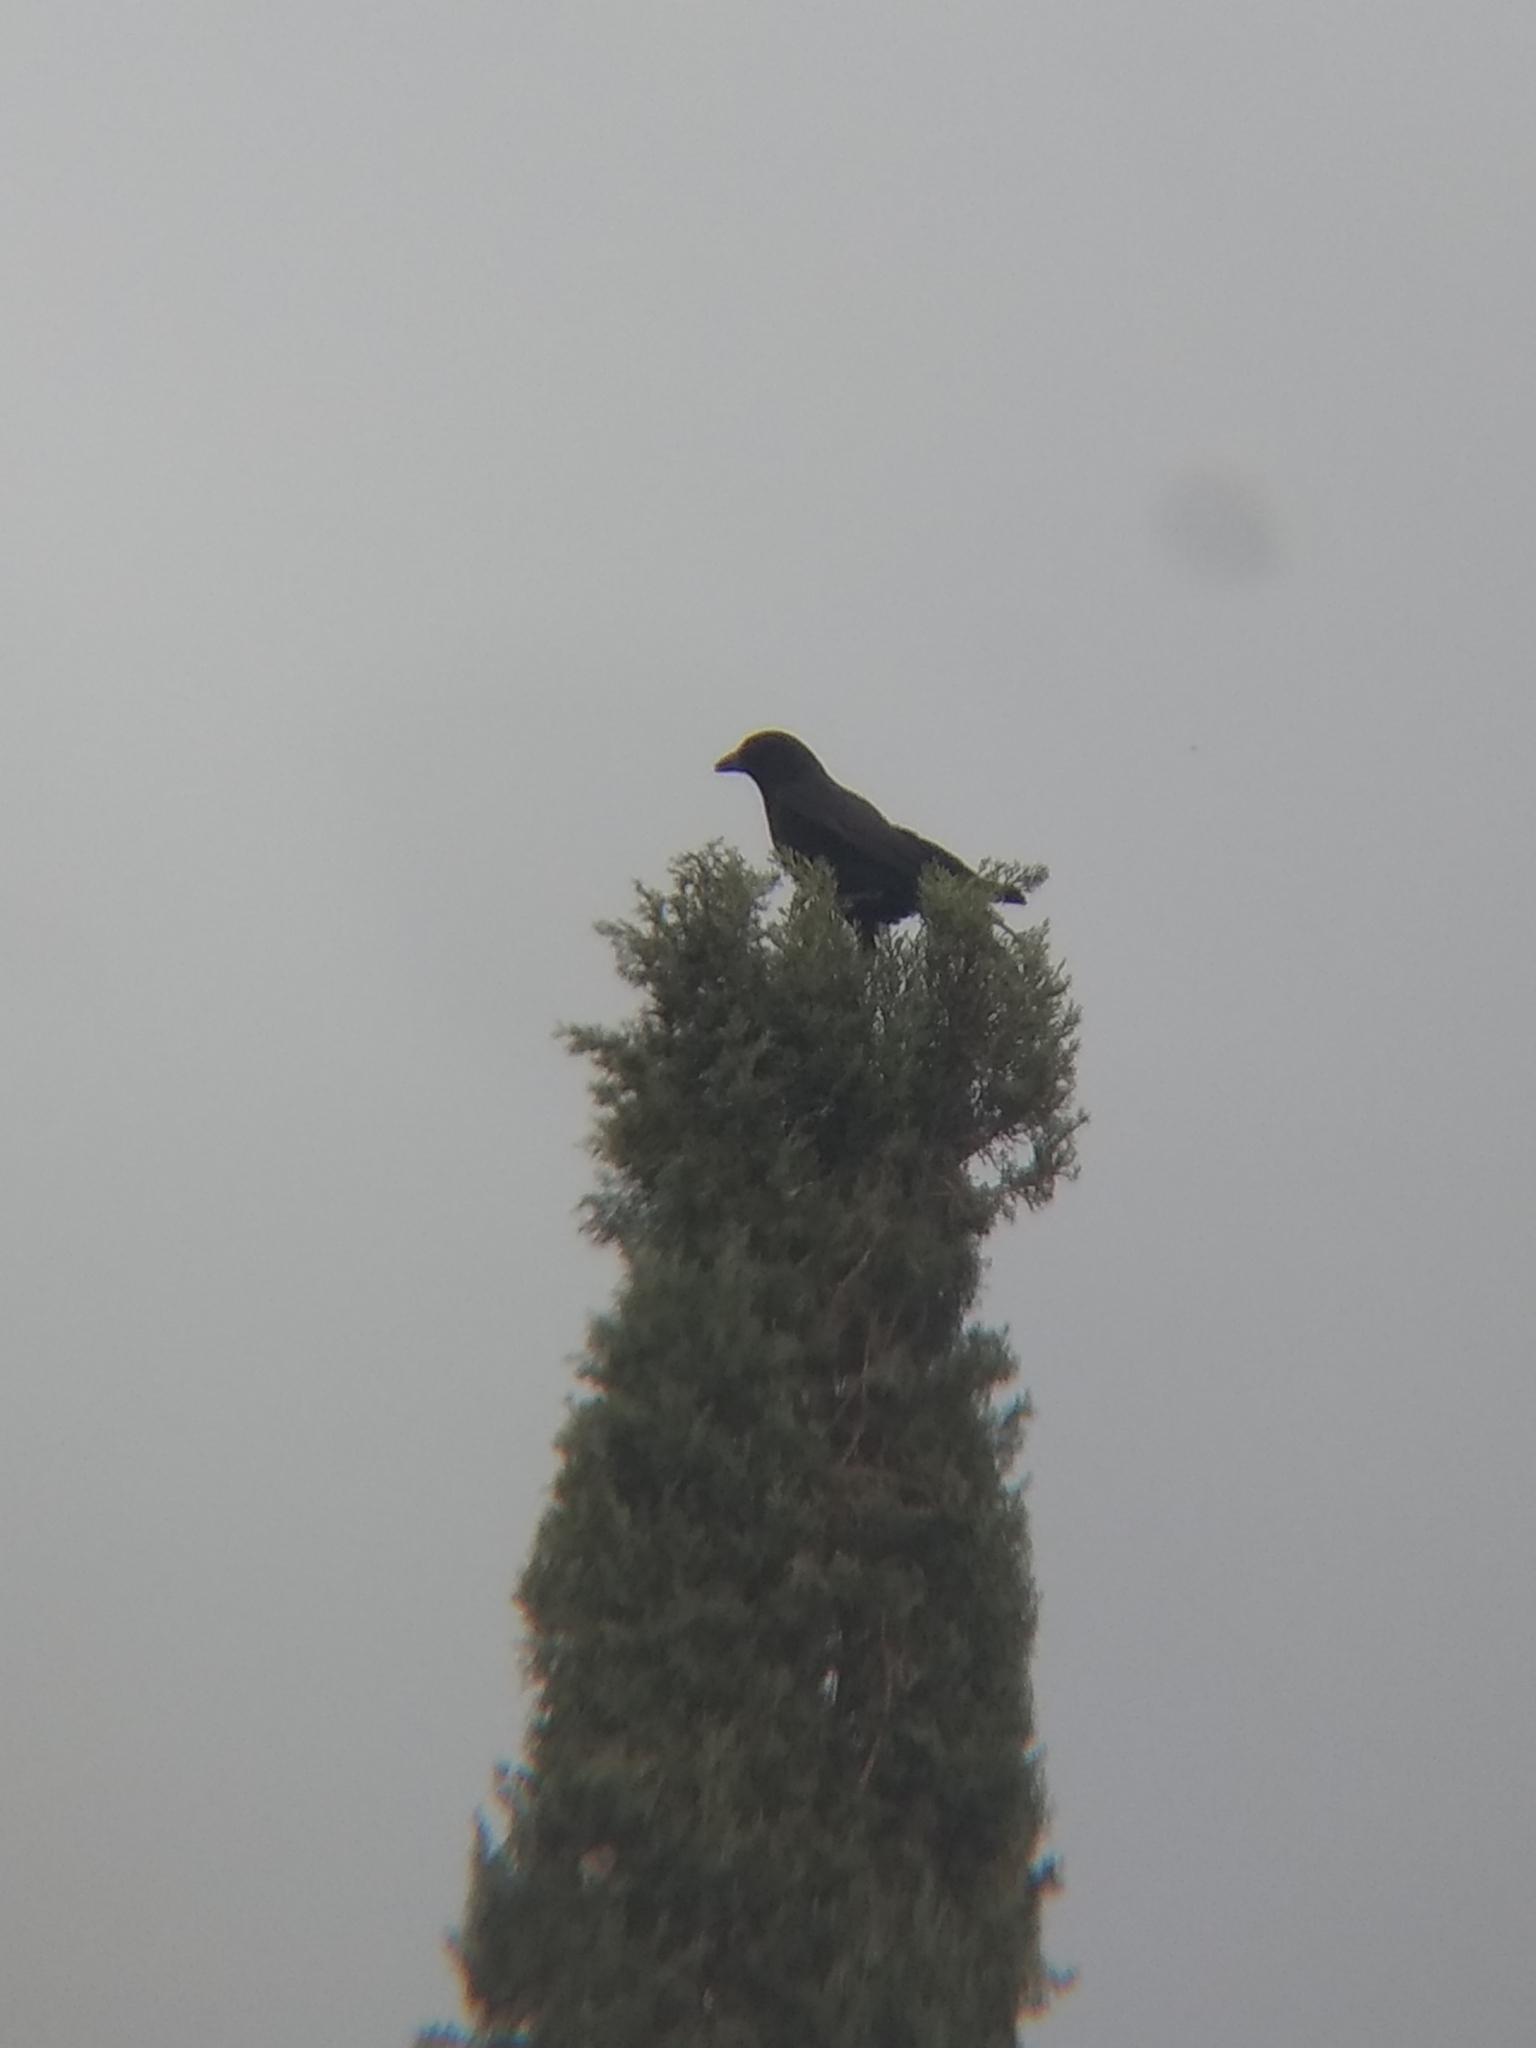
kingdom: Animalia
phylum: Chordata
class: Aves
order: Passeriformes
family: Corvidae
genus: Corvus
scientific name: Corvus brachyrhynchos
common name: American crow
